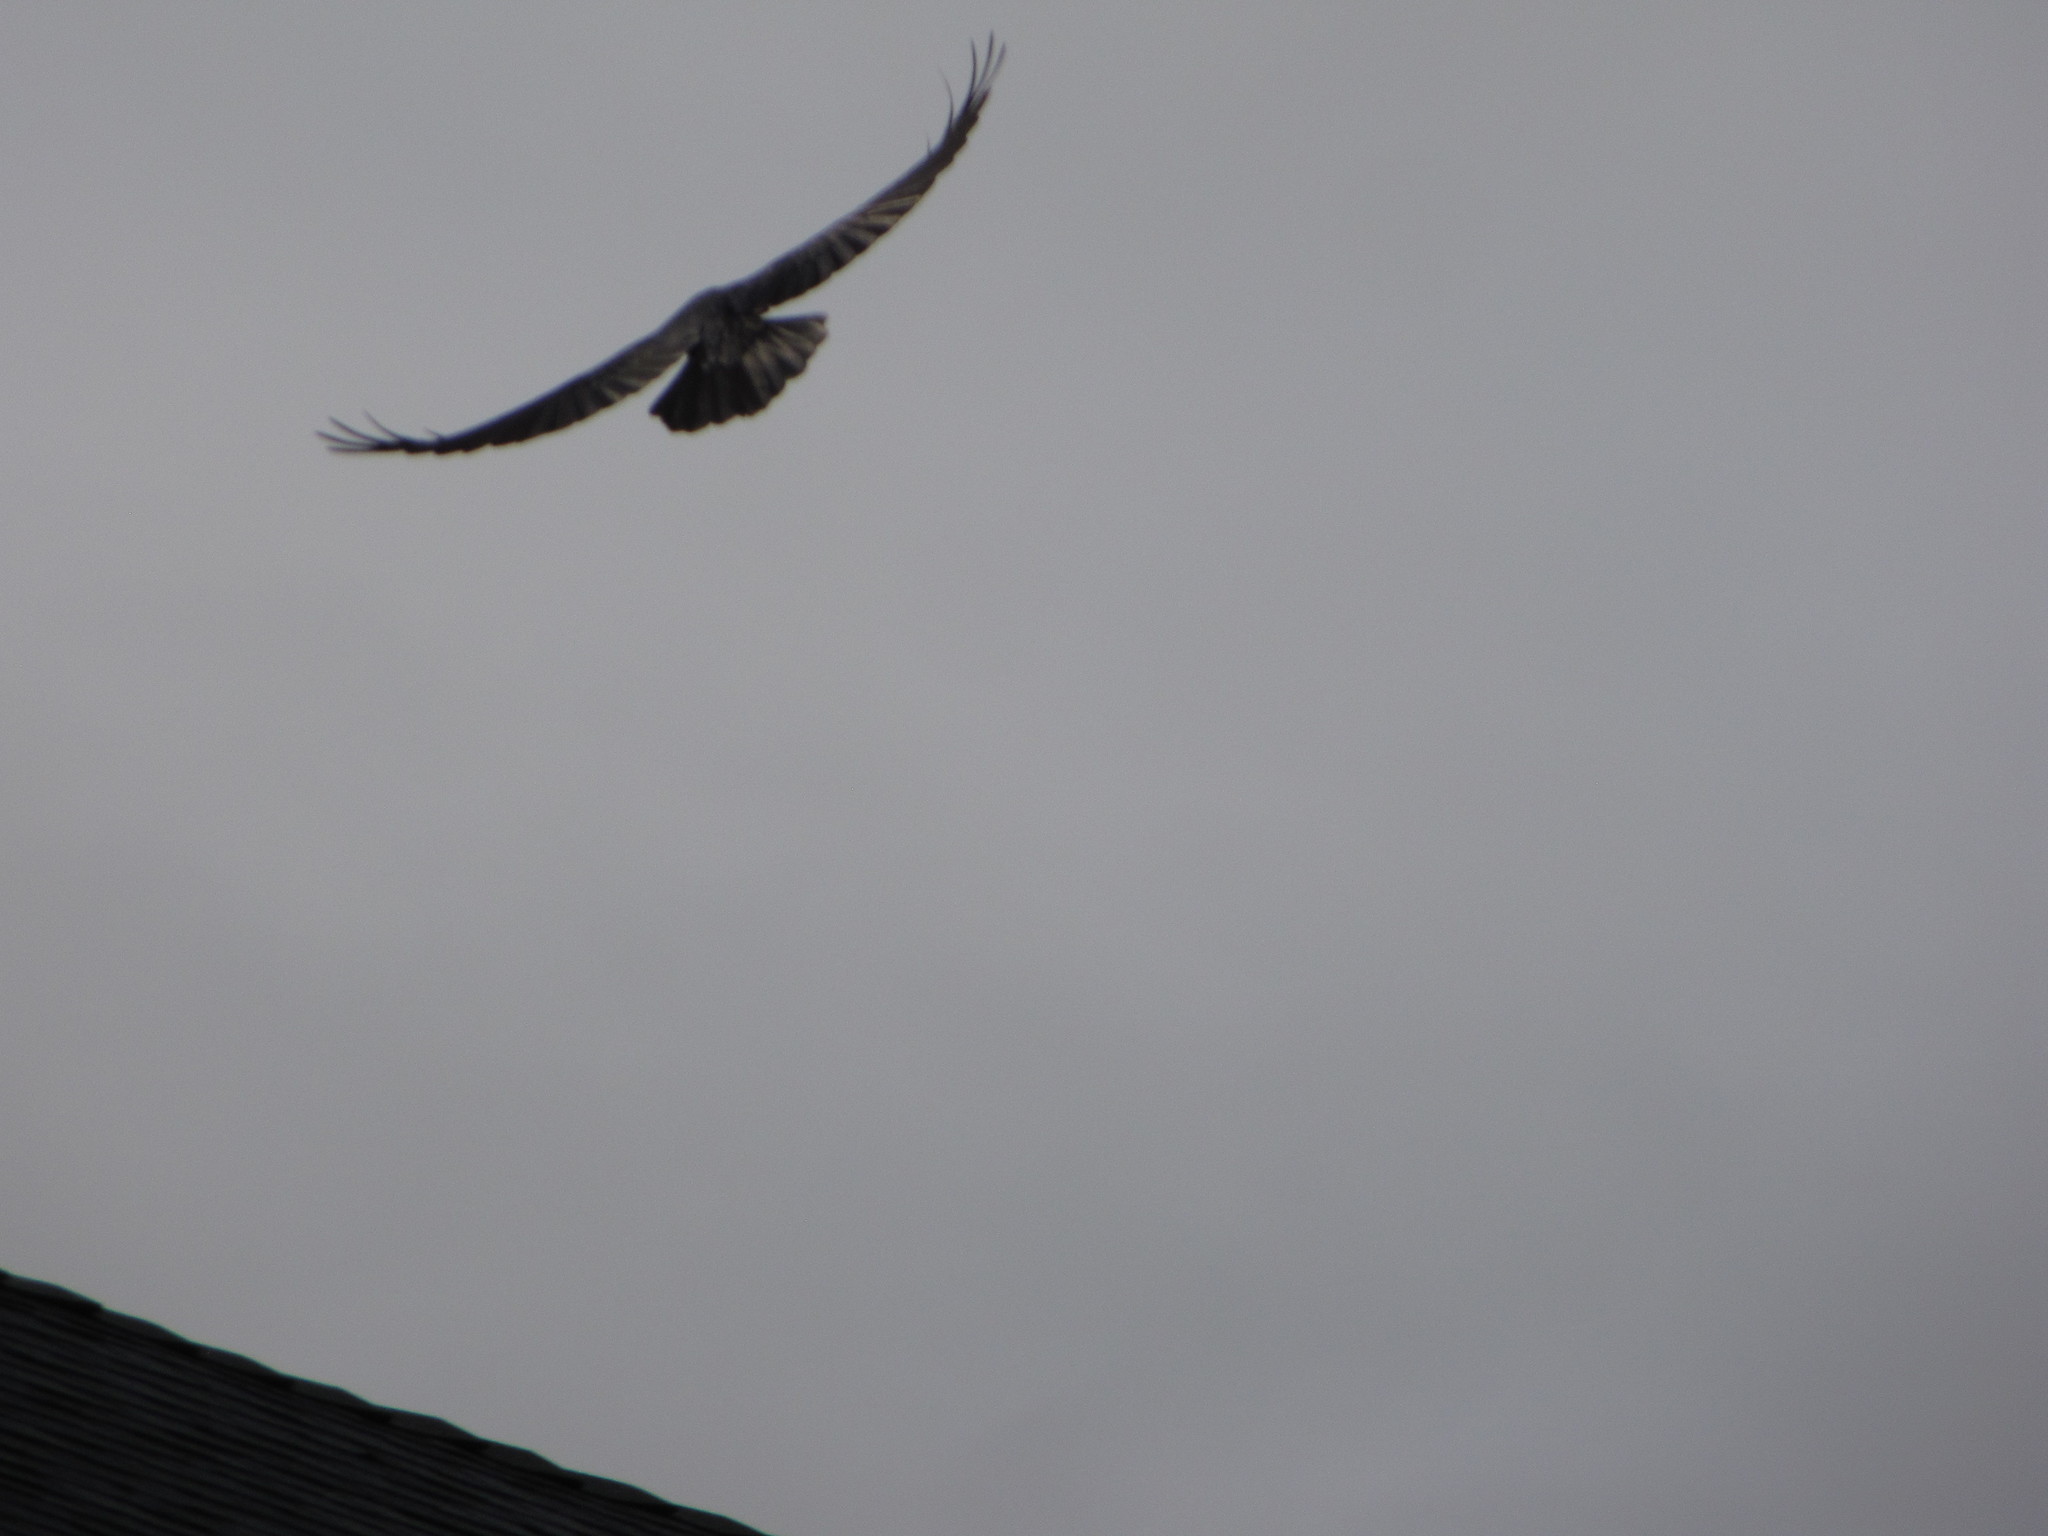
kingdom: Animalia
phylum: Chordata
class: Aves
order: Passeriformes
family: Corvidae
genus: Corvus
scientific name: Corvus corax
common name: Common raven
